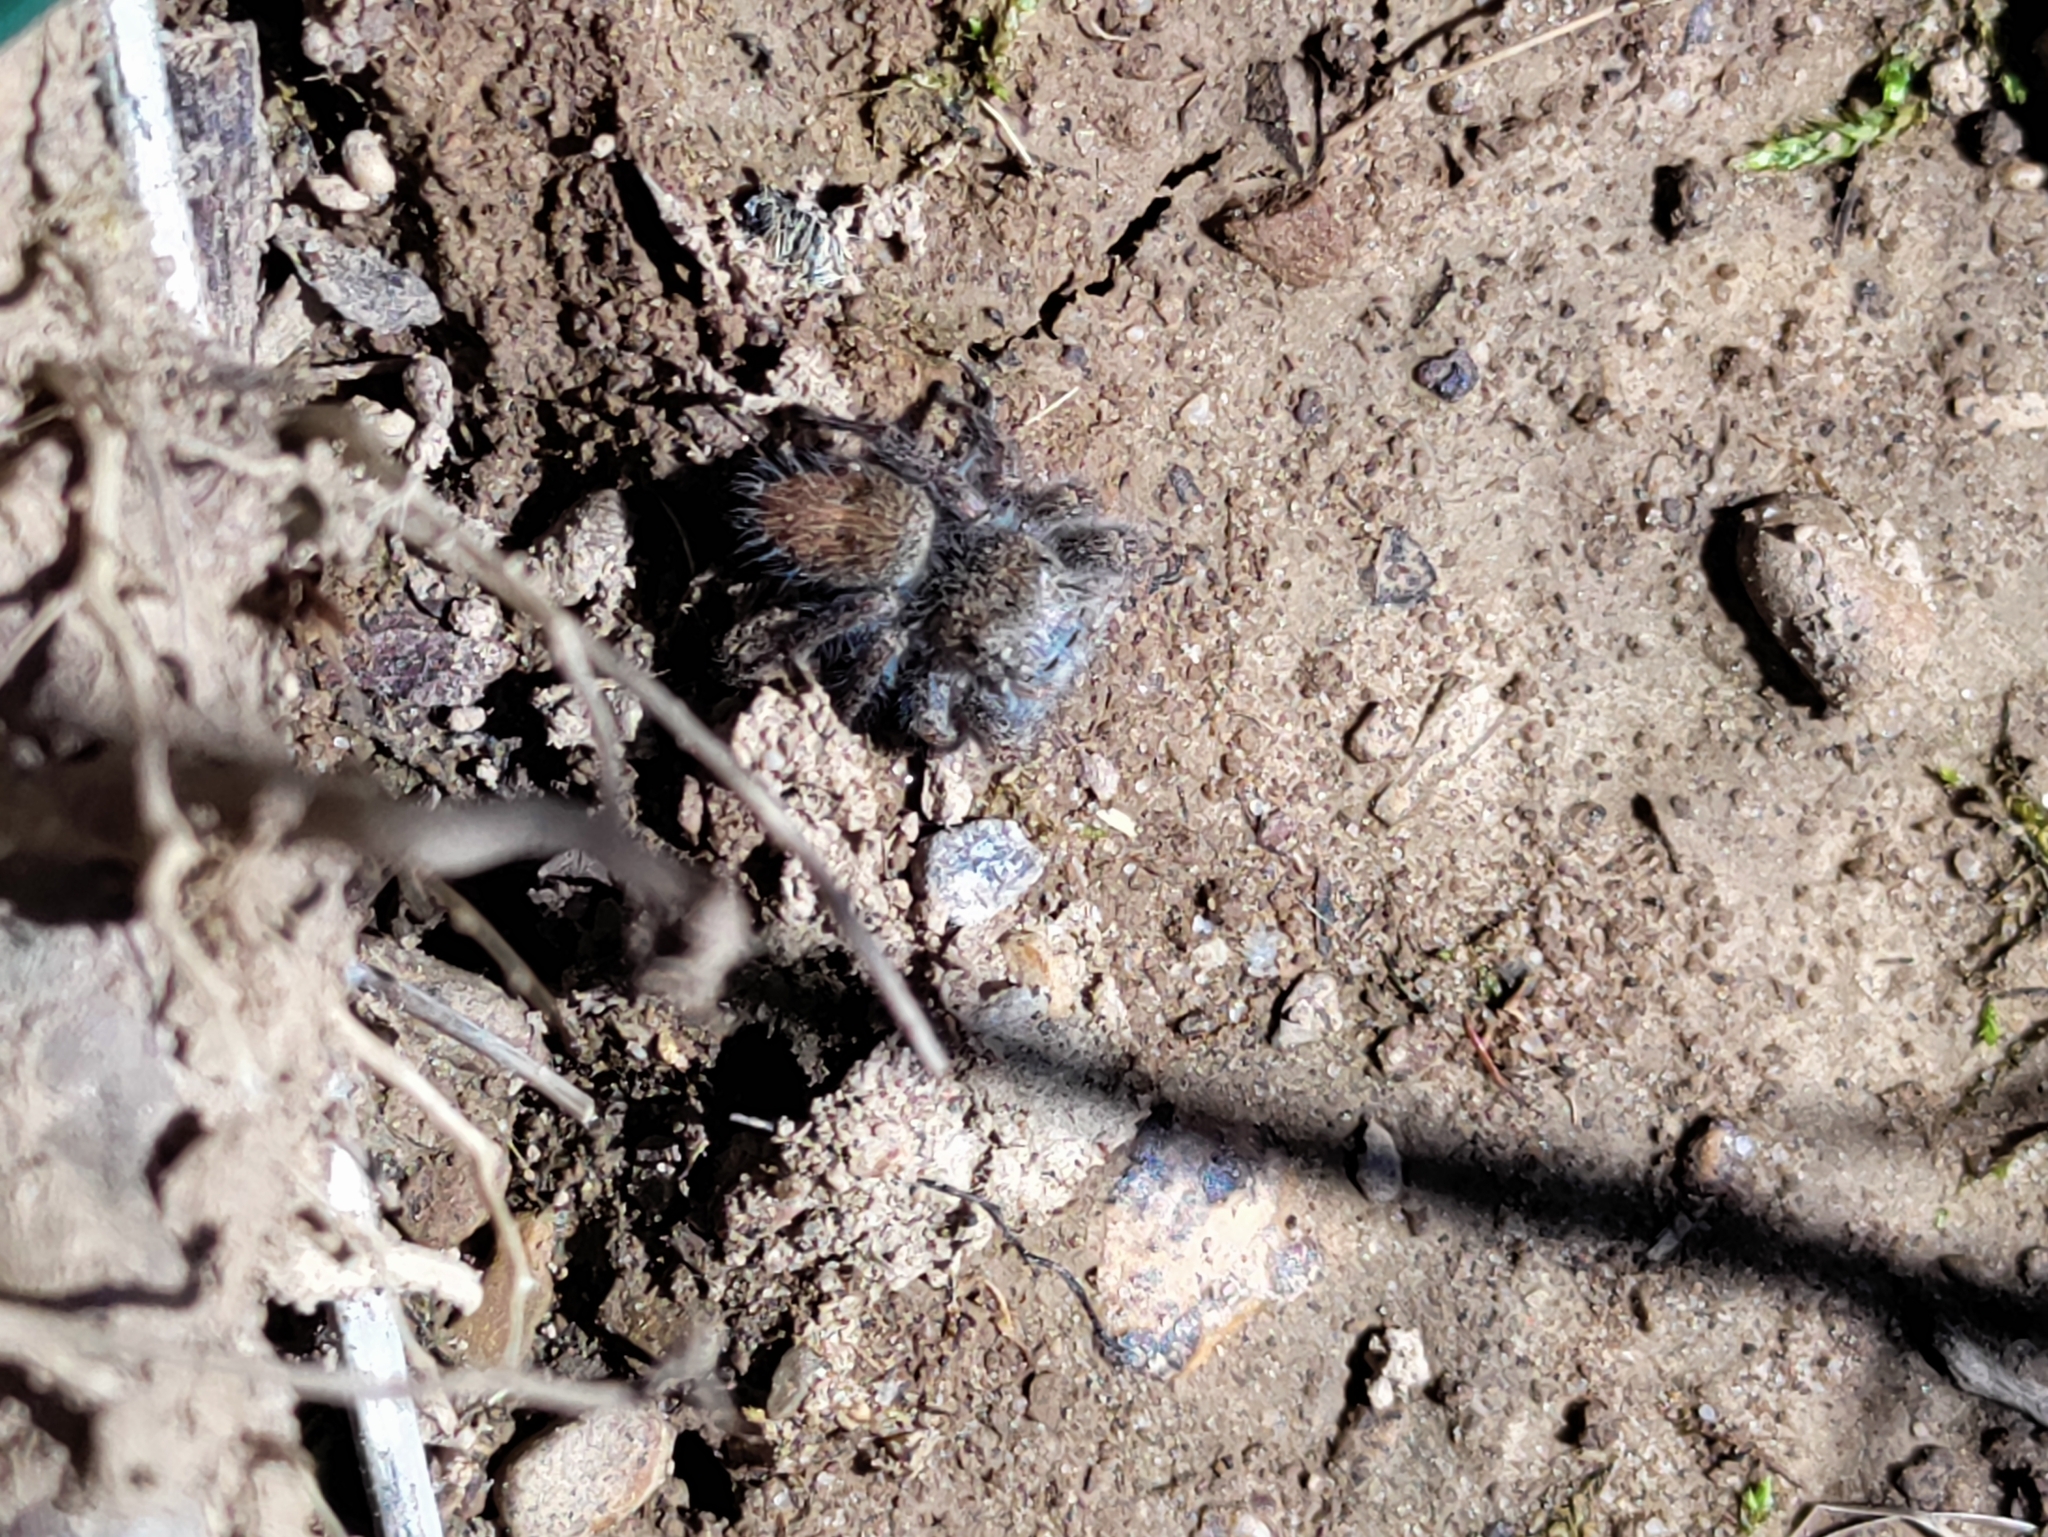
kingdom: Animalia
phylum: Arthropoda
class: Arachnida
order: Araneae
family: Salticidae
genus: Phidippus
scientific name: Phidippus princeps
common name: Grayish jumping spider
